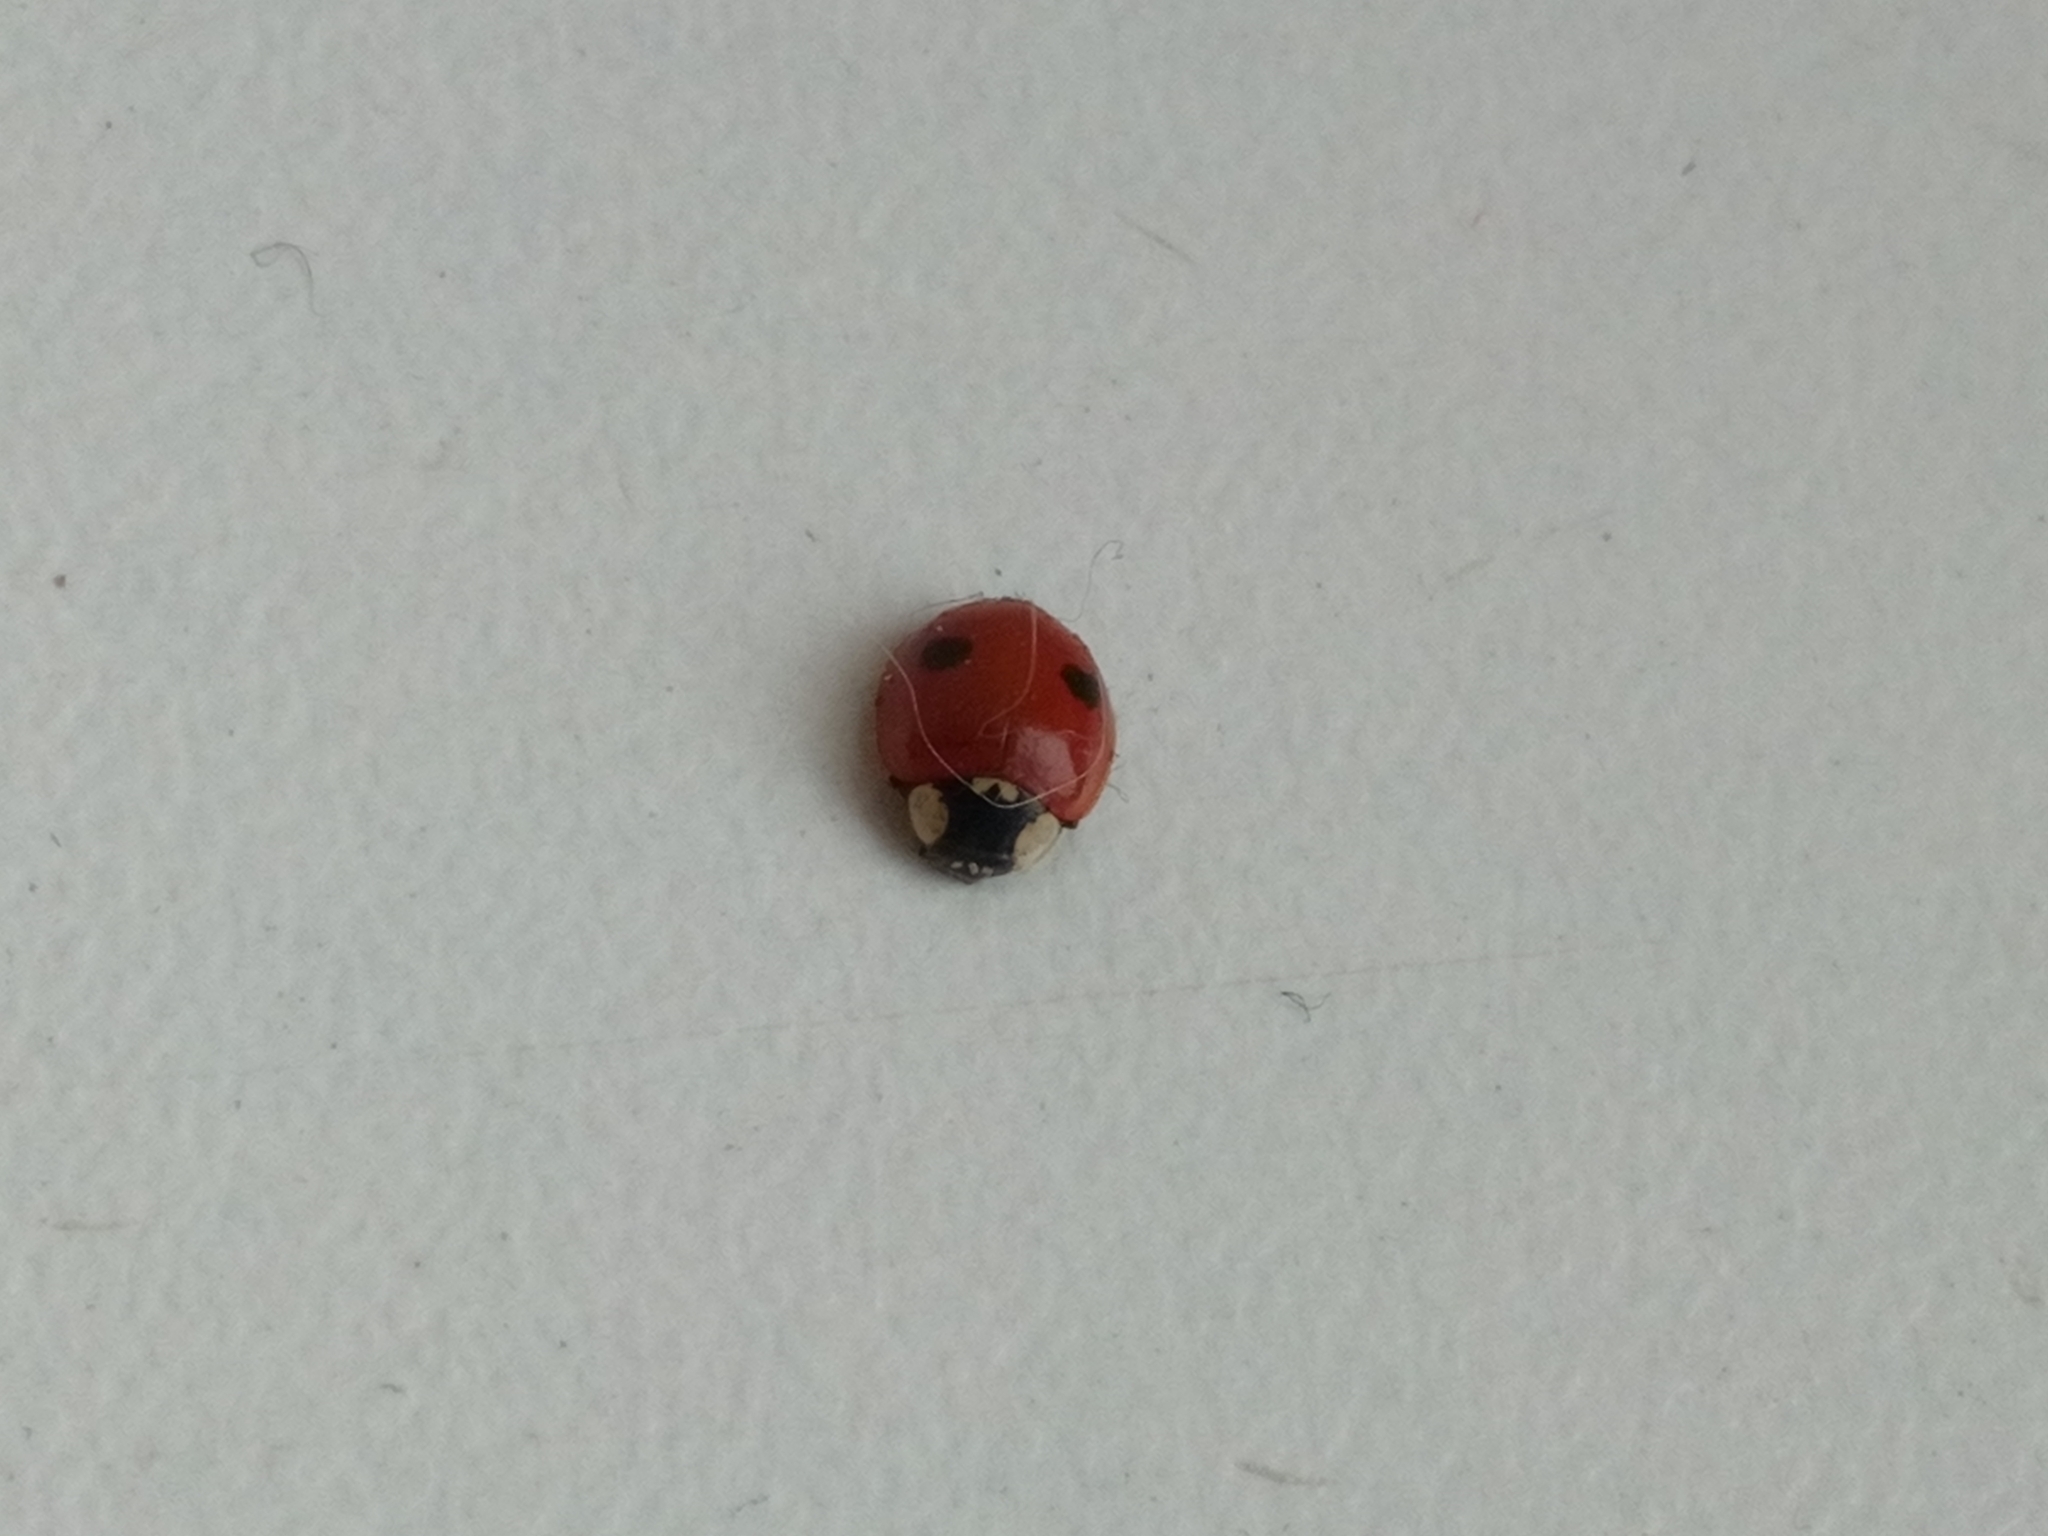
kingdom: Animalia
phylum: Arthropoda
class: Insecta
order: Coleoptera
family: Coccinellidae
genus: Adalia
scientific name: Adalia bipunctata
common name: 2-spot ladybird
